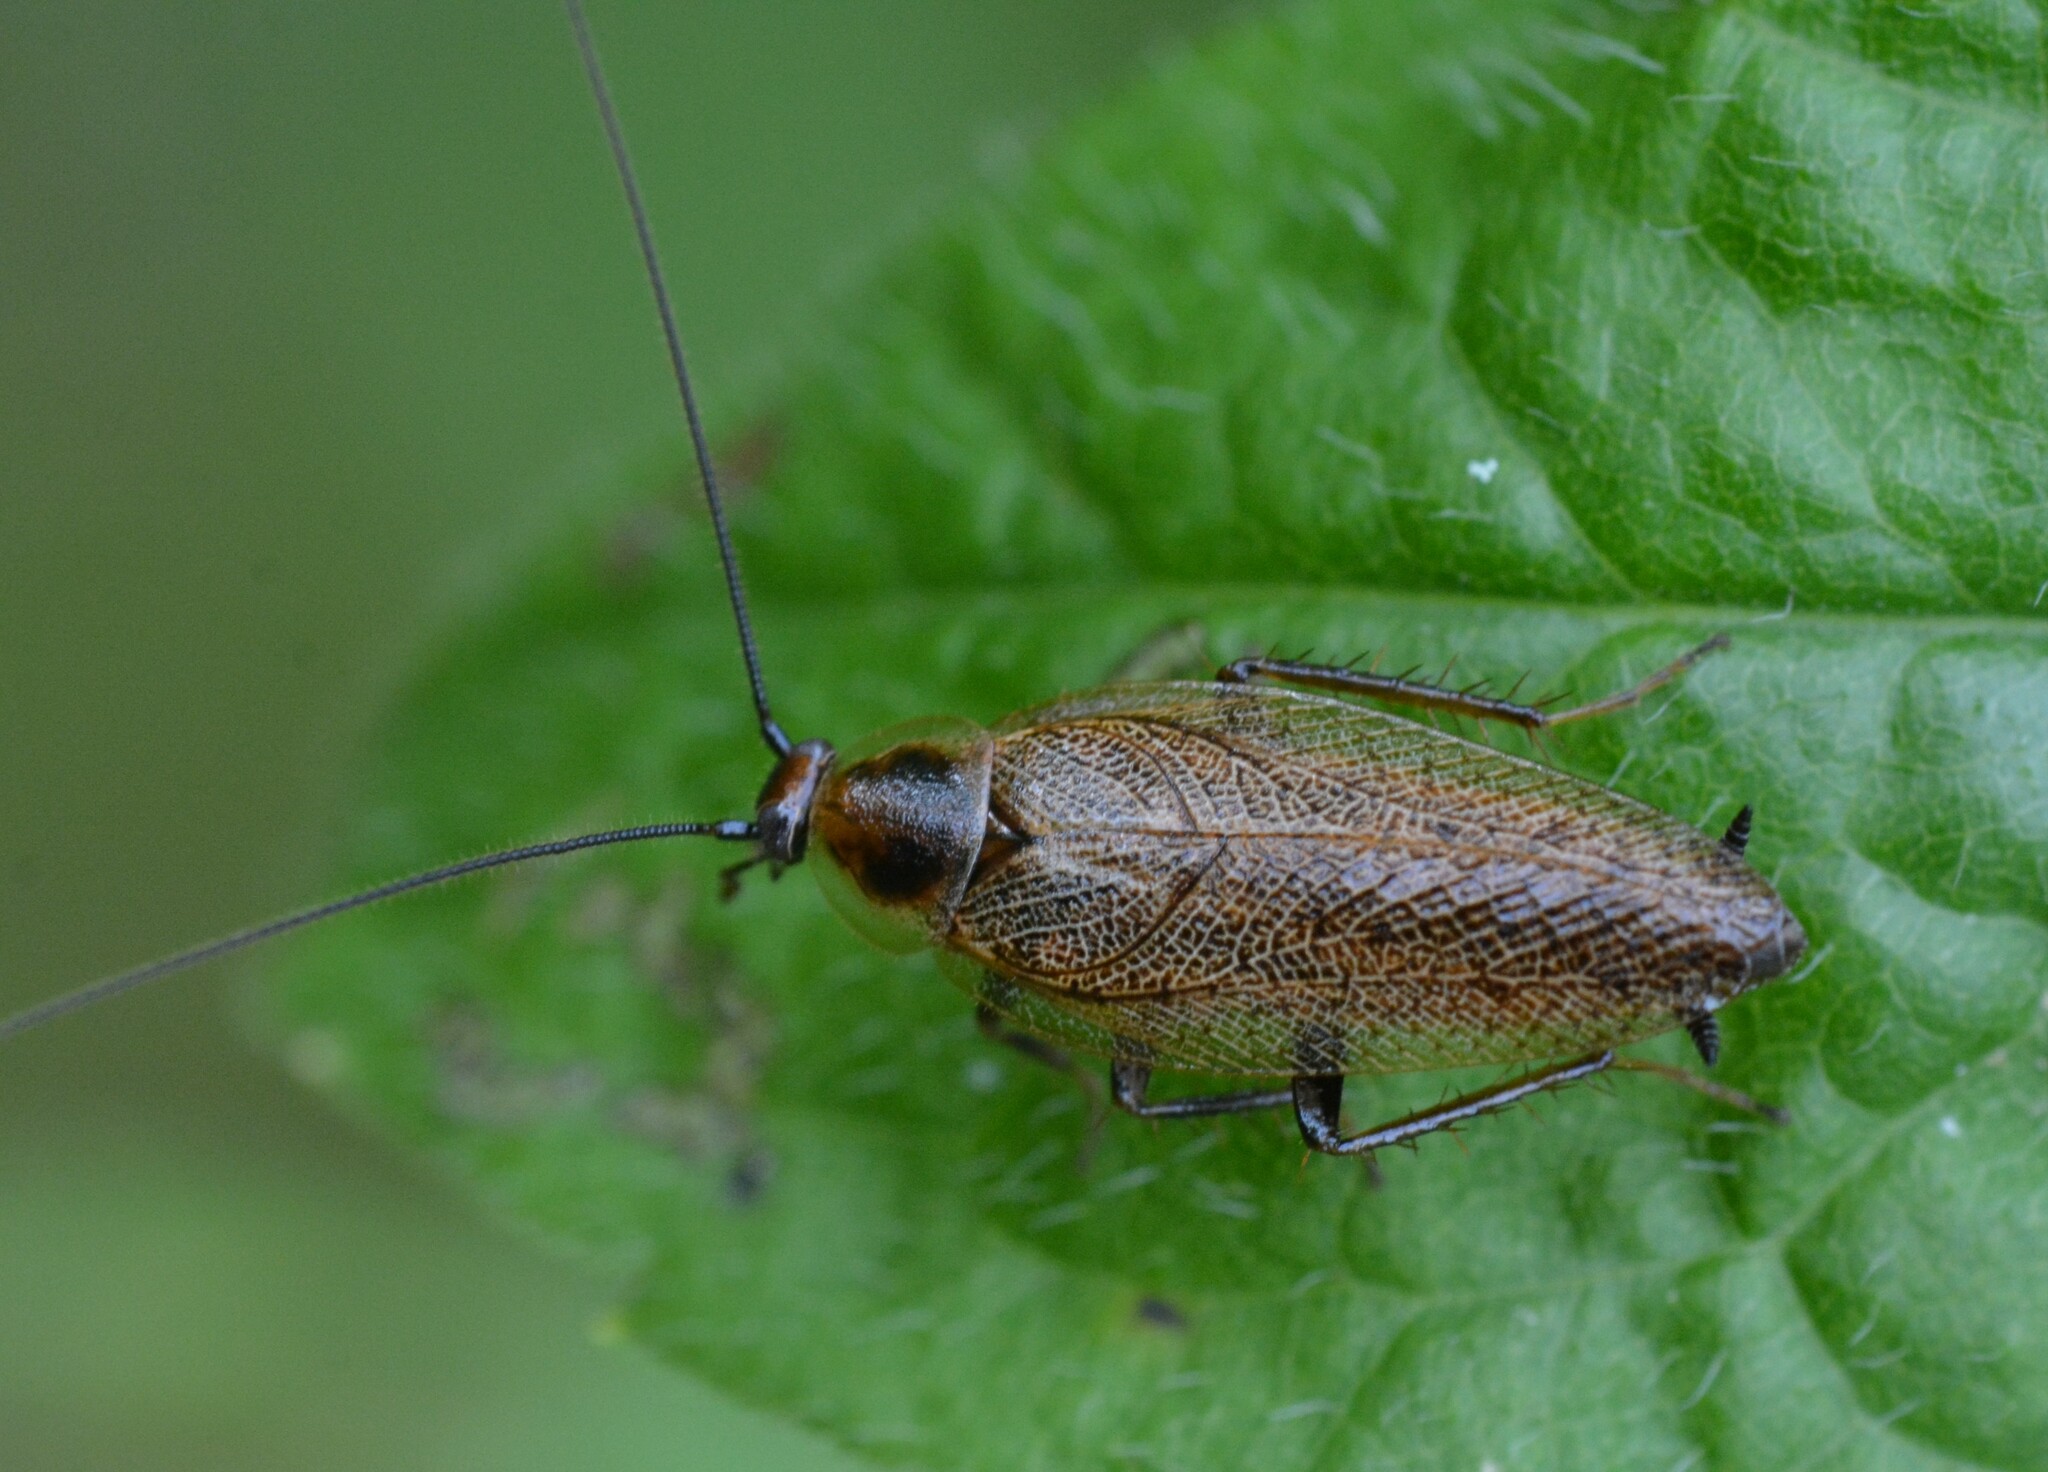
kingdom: Animalia
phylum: Arthropoda
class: Insecta
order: Blattodea
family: Ectobiidae
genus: Ectobius
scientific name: Ectobius lapponicus
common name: Dusky cockroach
